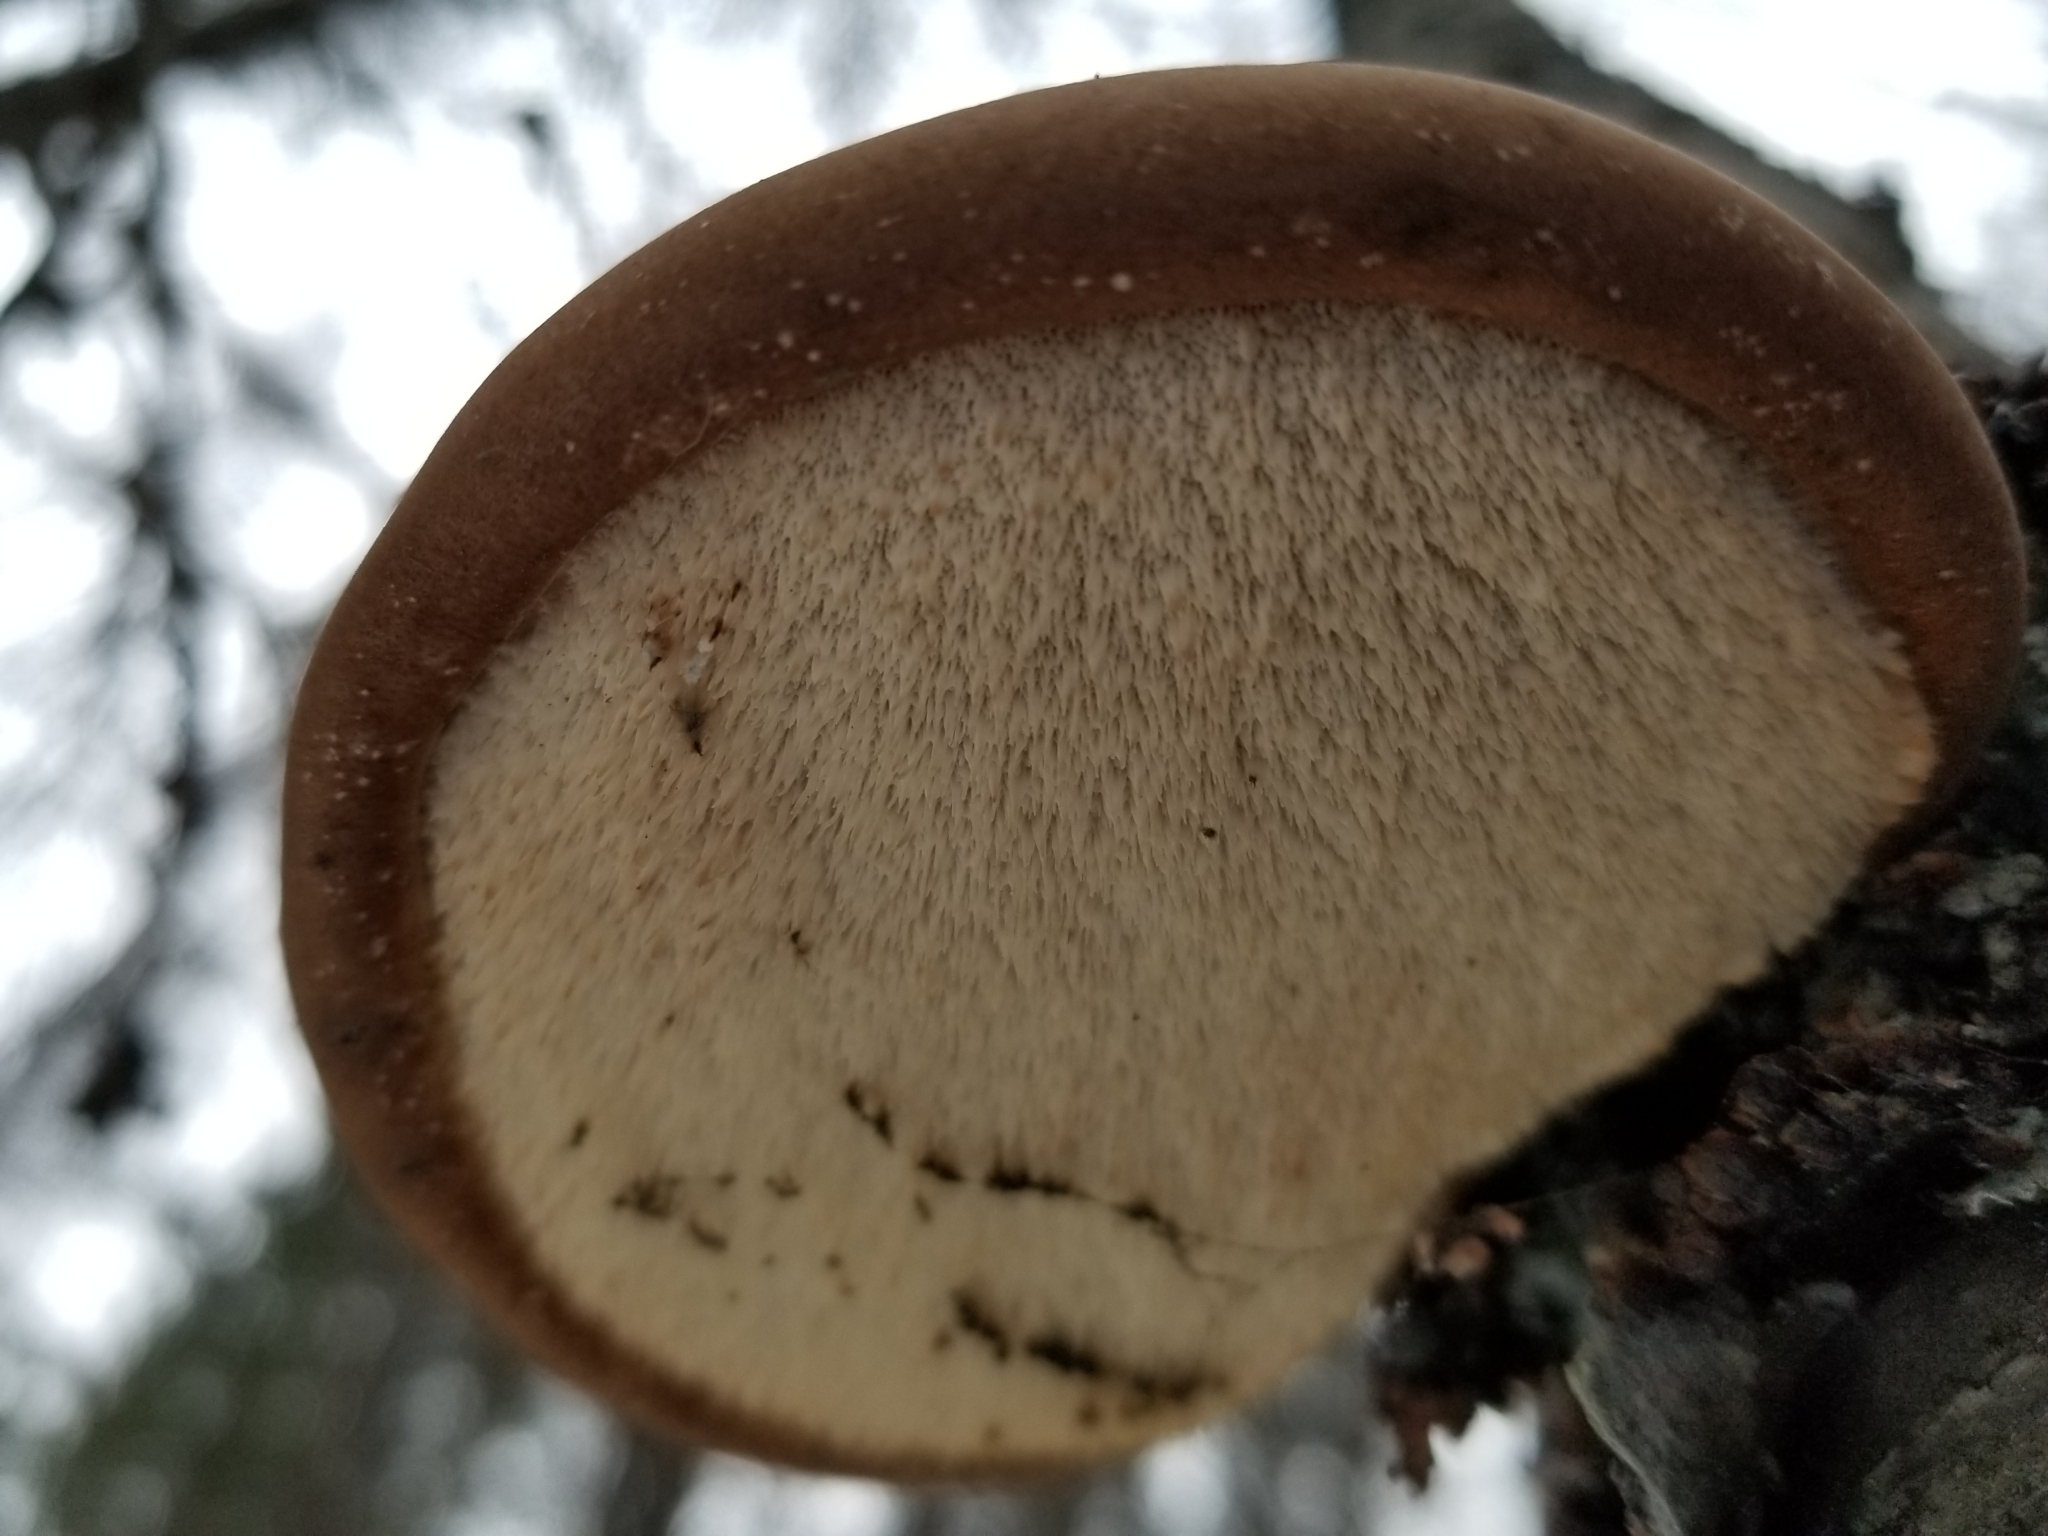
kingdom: Fungi
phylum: Basidiomycota
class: Agaricomycetes
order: Polyporales
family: Fomitopsidaceae
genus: Fomitopsis
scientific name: Fomitopsis betulina
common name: Birch polypore
